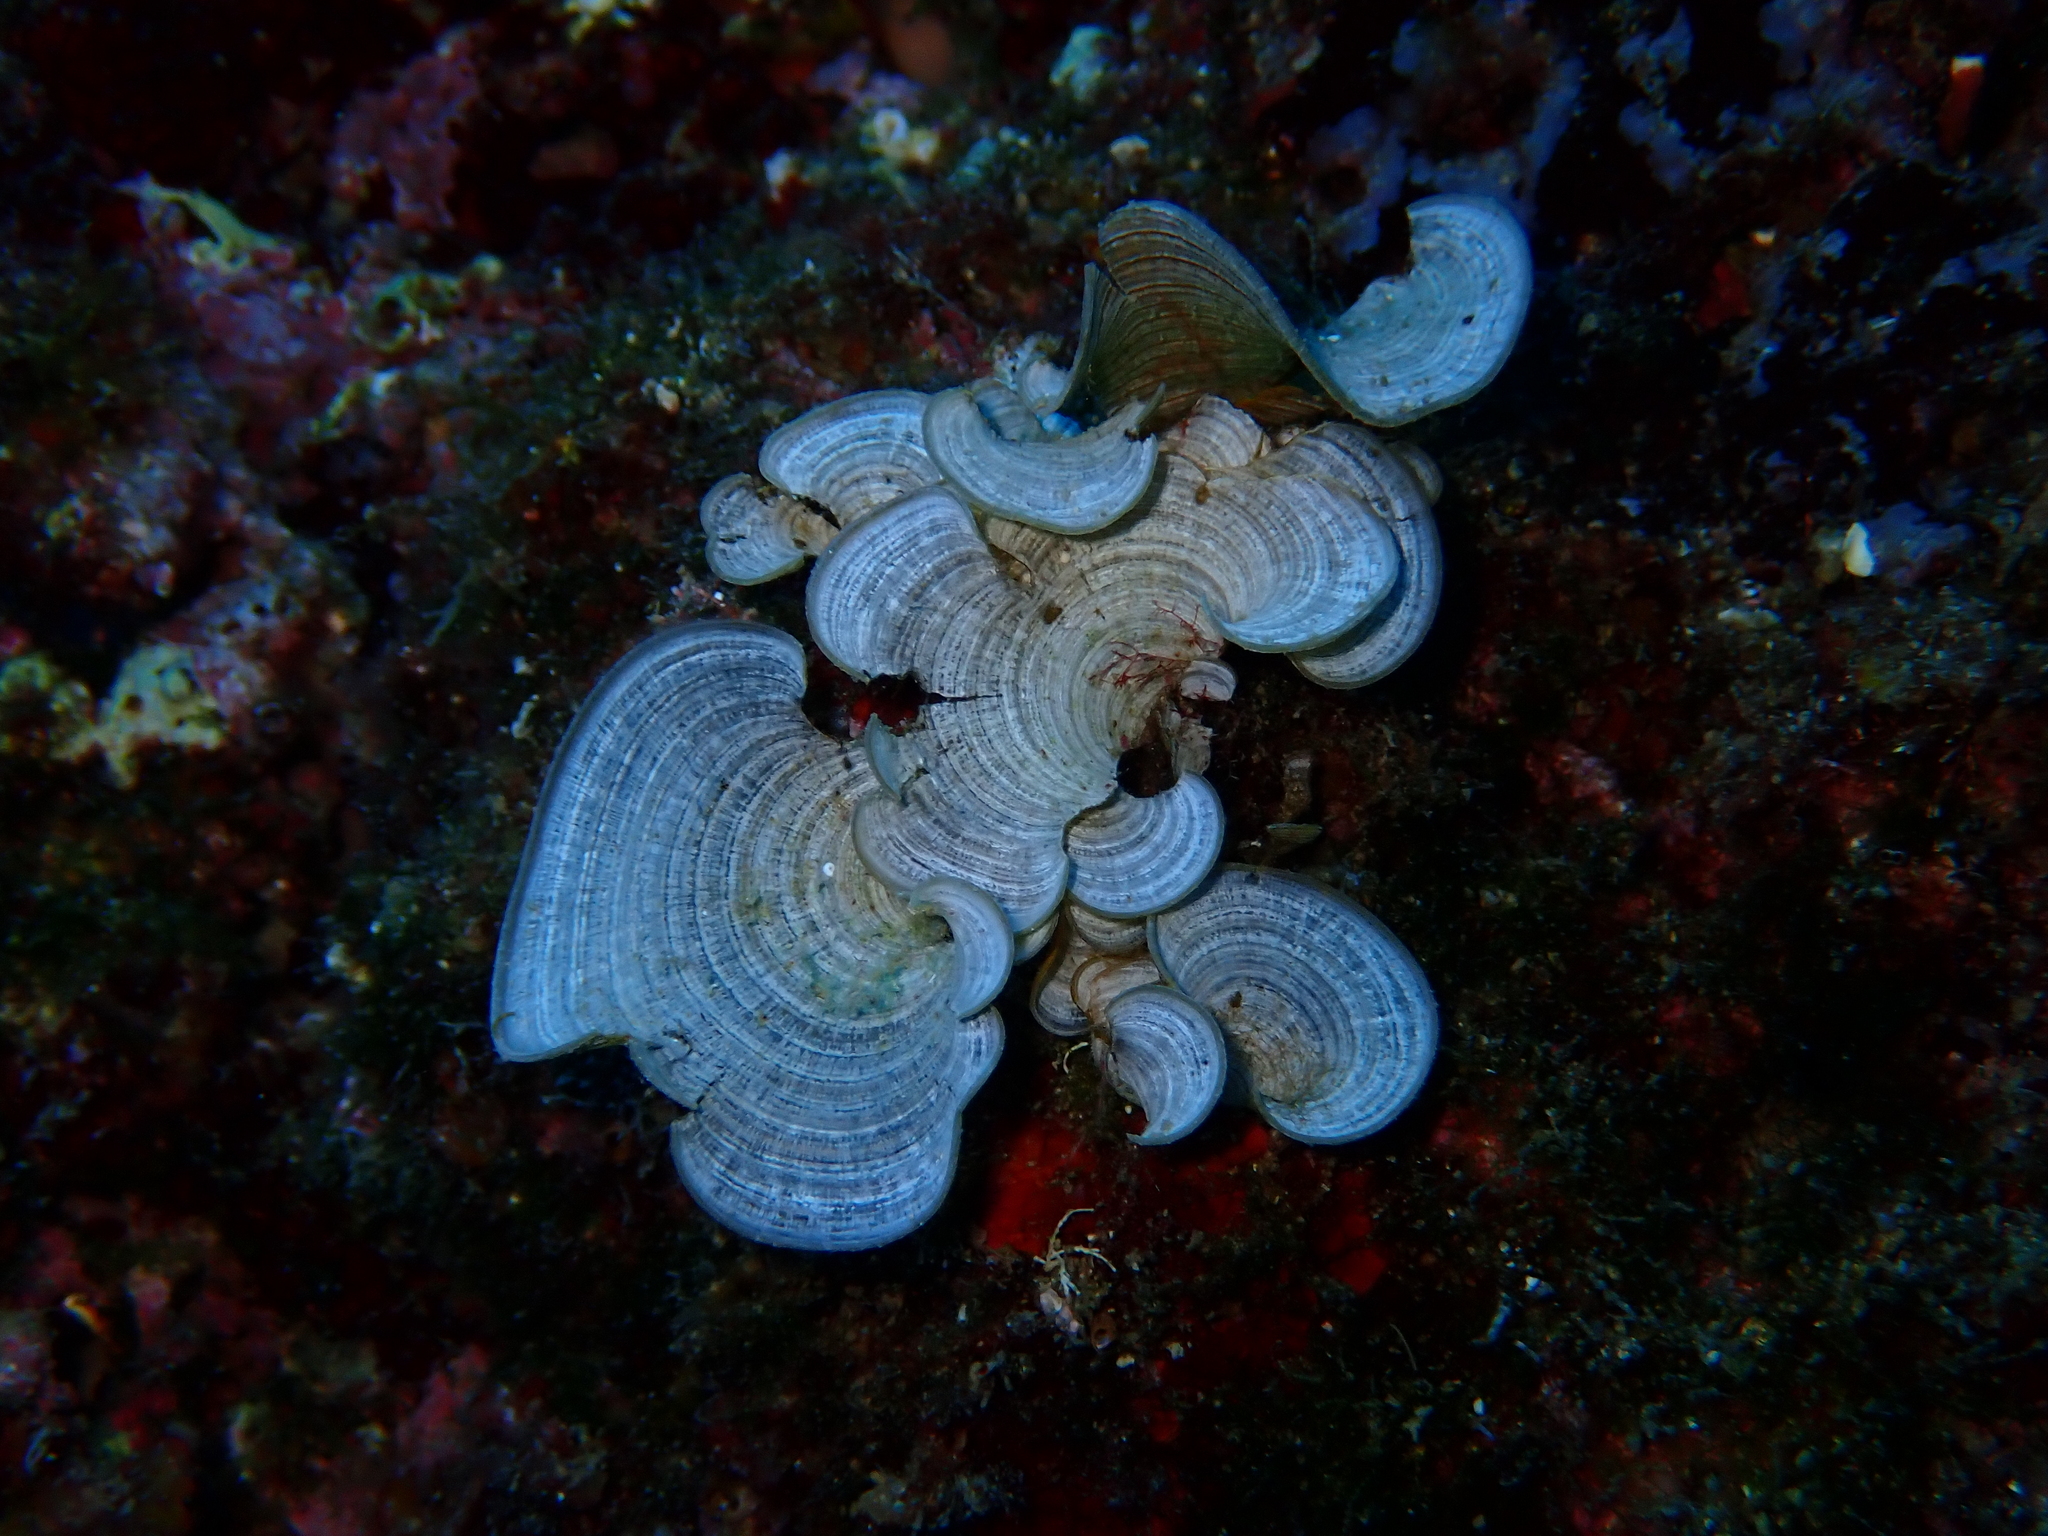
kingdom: Chromista
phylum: Ochrophyta
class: Phaeophyceae
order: Dictyotales
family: Dictyotaceae
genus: Padina
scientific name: Padina
